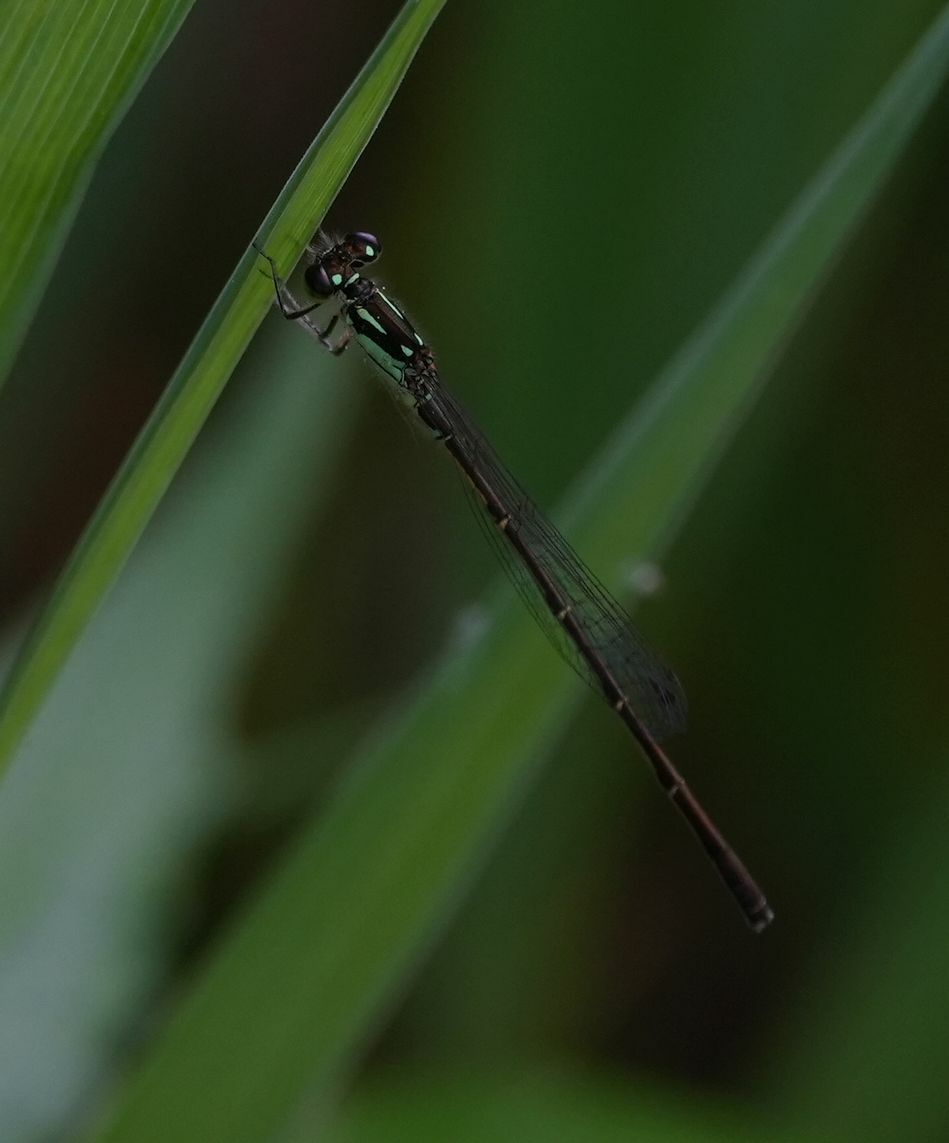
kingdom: Animalia
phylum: Arthropoda
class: Insecta
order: Odonata
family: Coenagrionidae
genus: Ischnura
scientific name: Ischnura posita
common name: Fragile forktail
